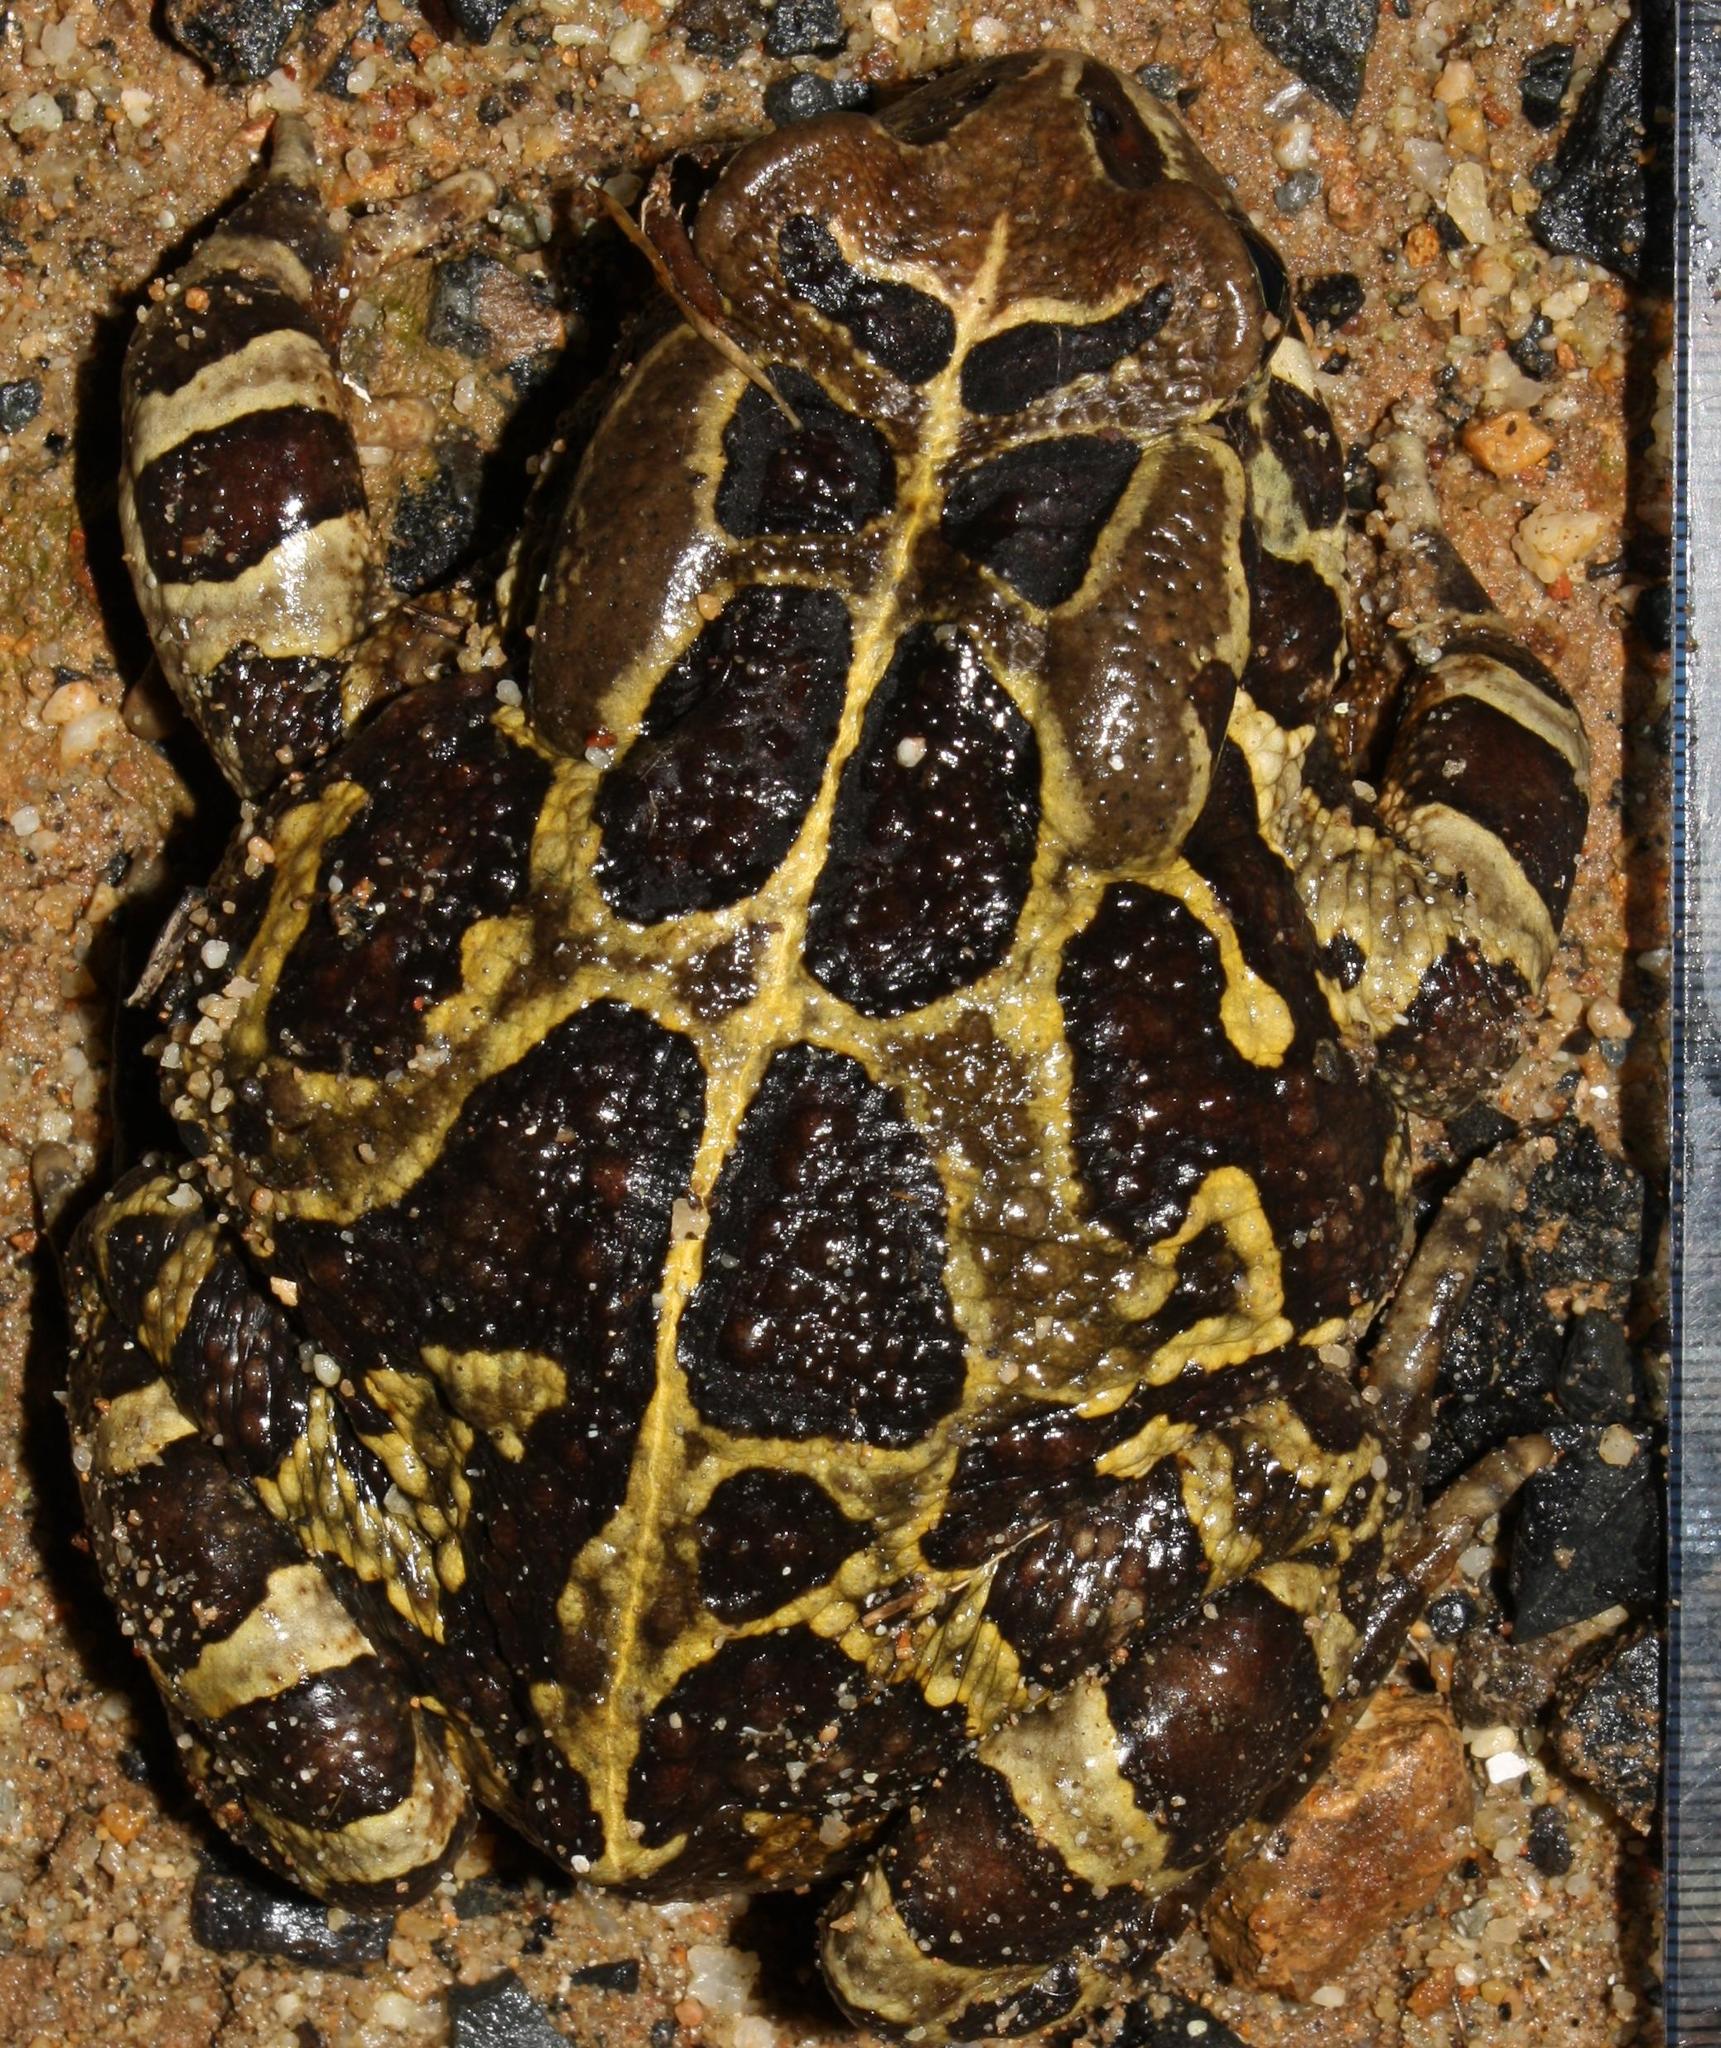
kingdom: Animalia
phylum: Chordata
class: Amphibia
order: Anura
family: Bufonidae
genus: Sclerophrys
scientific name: Sclerophrys pantherina
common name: Panther toad
